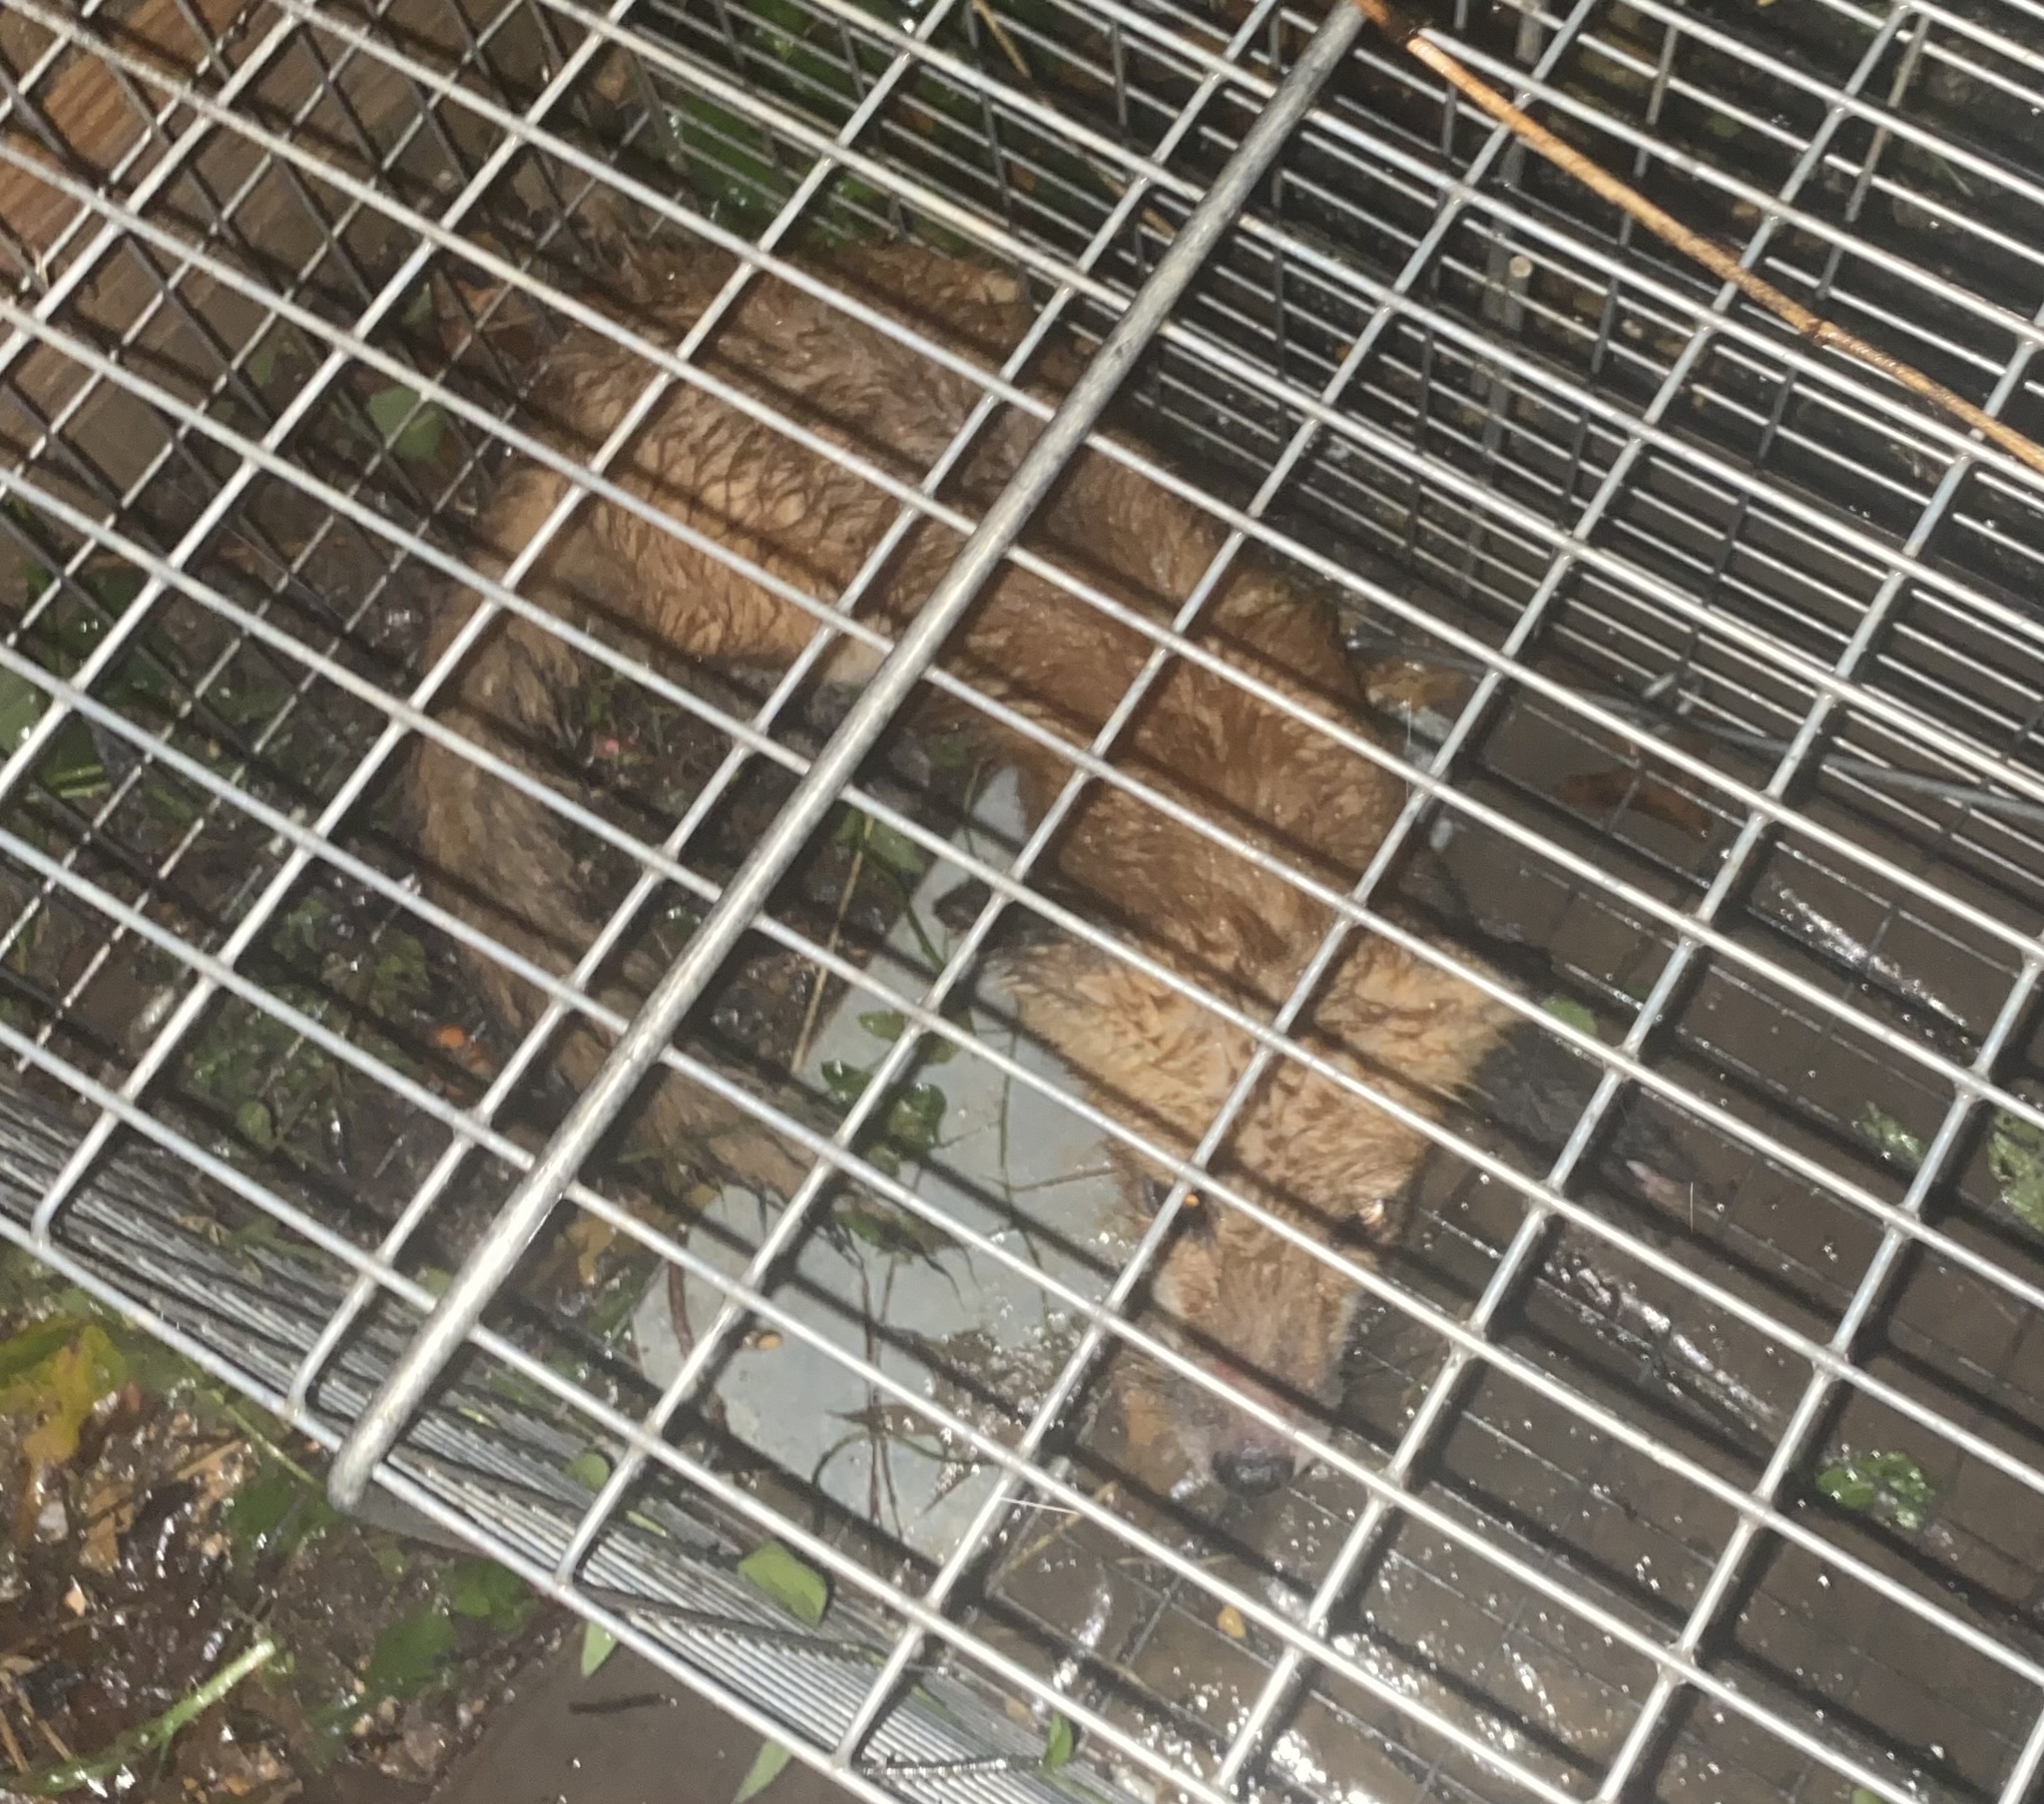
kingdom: Animalia
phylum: Chordata
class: Mammalia
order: Carnivora
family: Canidae
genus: Vulpes
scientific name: Vulpes vulpes
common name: Red fox
